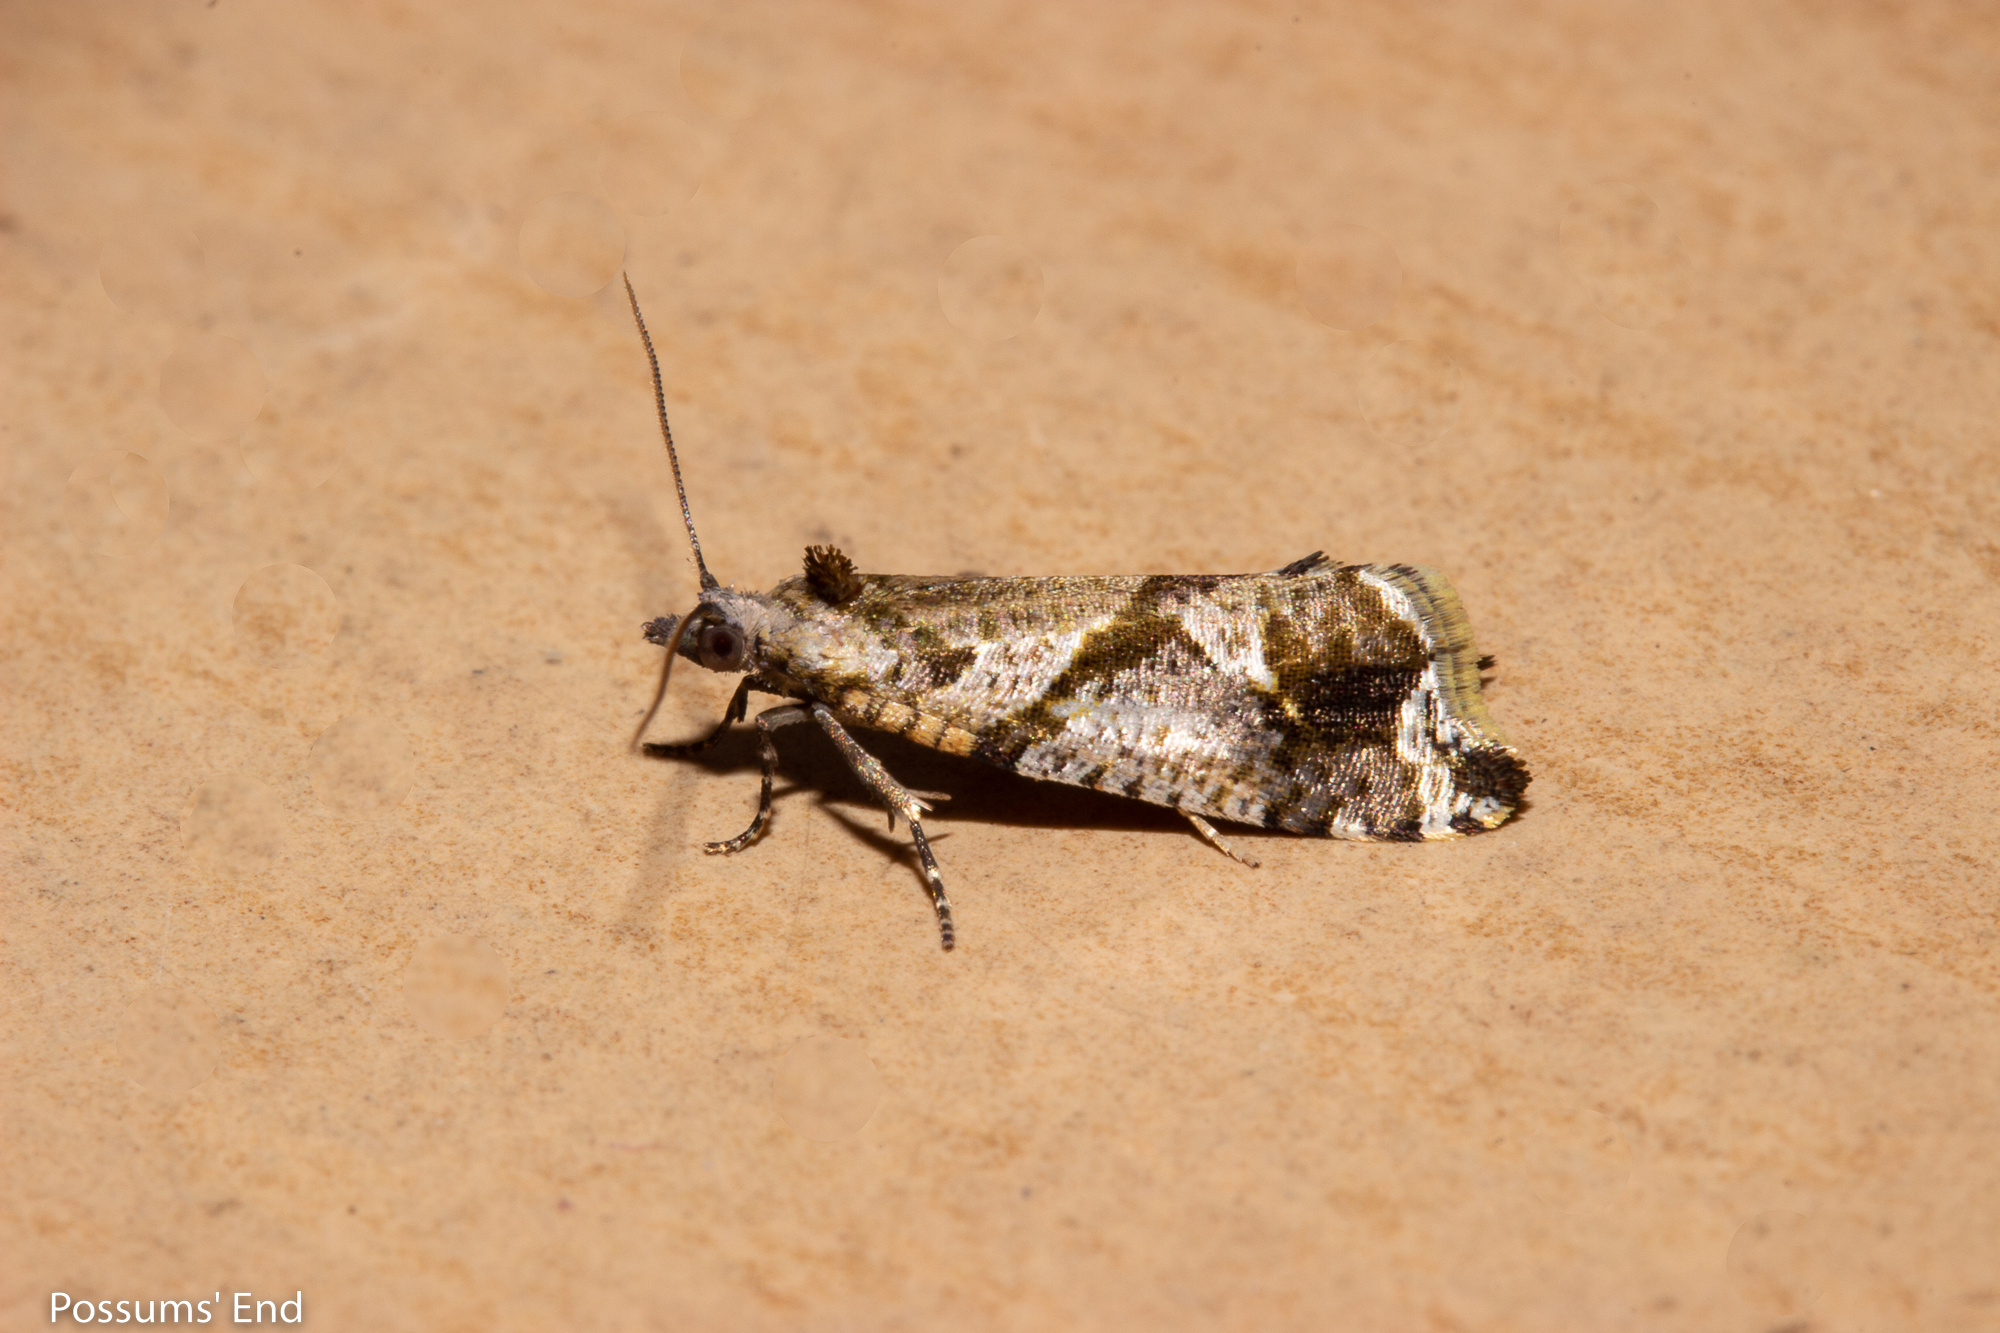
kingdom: Animalia
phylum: Arthropoda
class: Insecta
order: Lepidoptera
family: Tortricidae
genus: Pyrgotis
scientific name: Pyrgotis plagiatana
